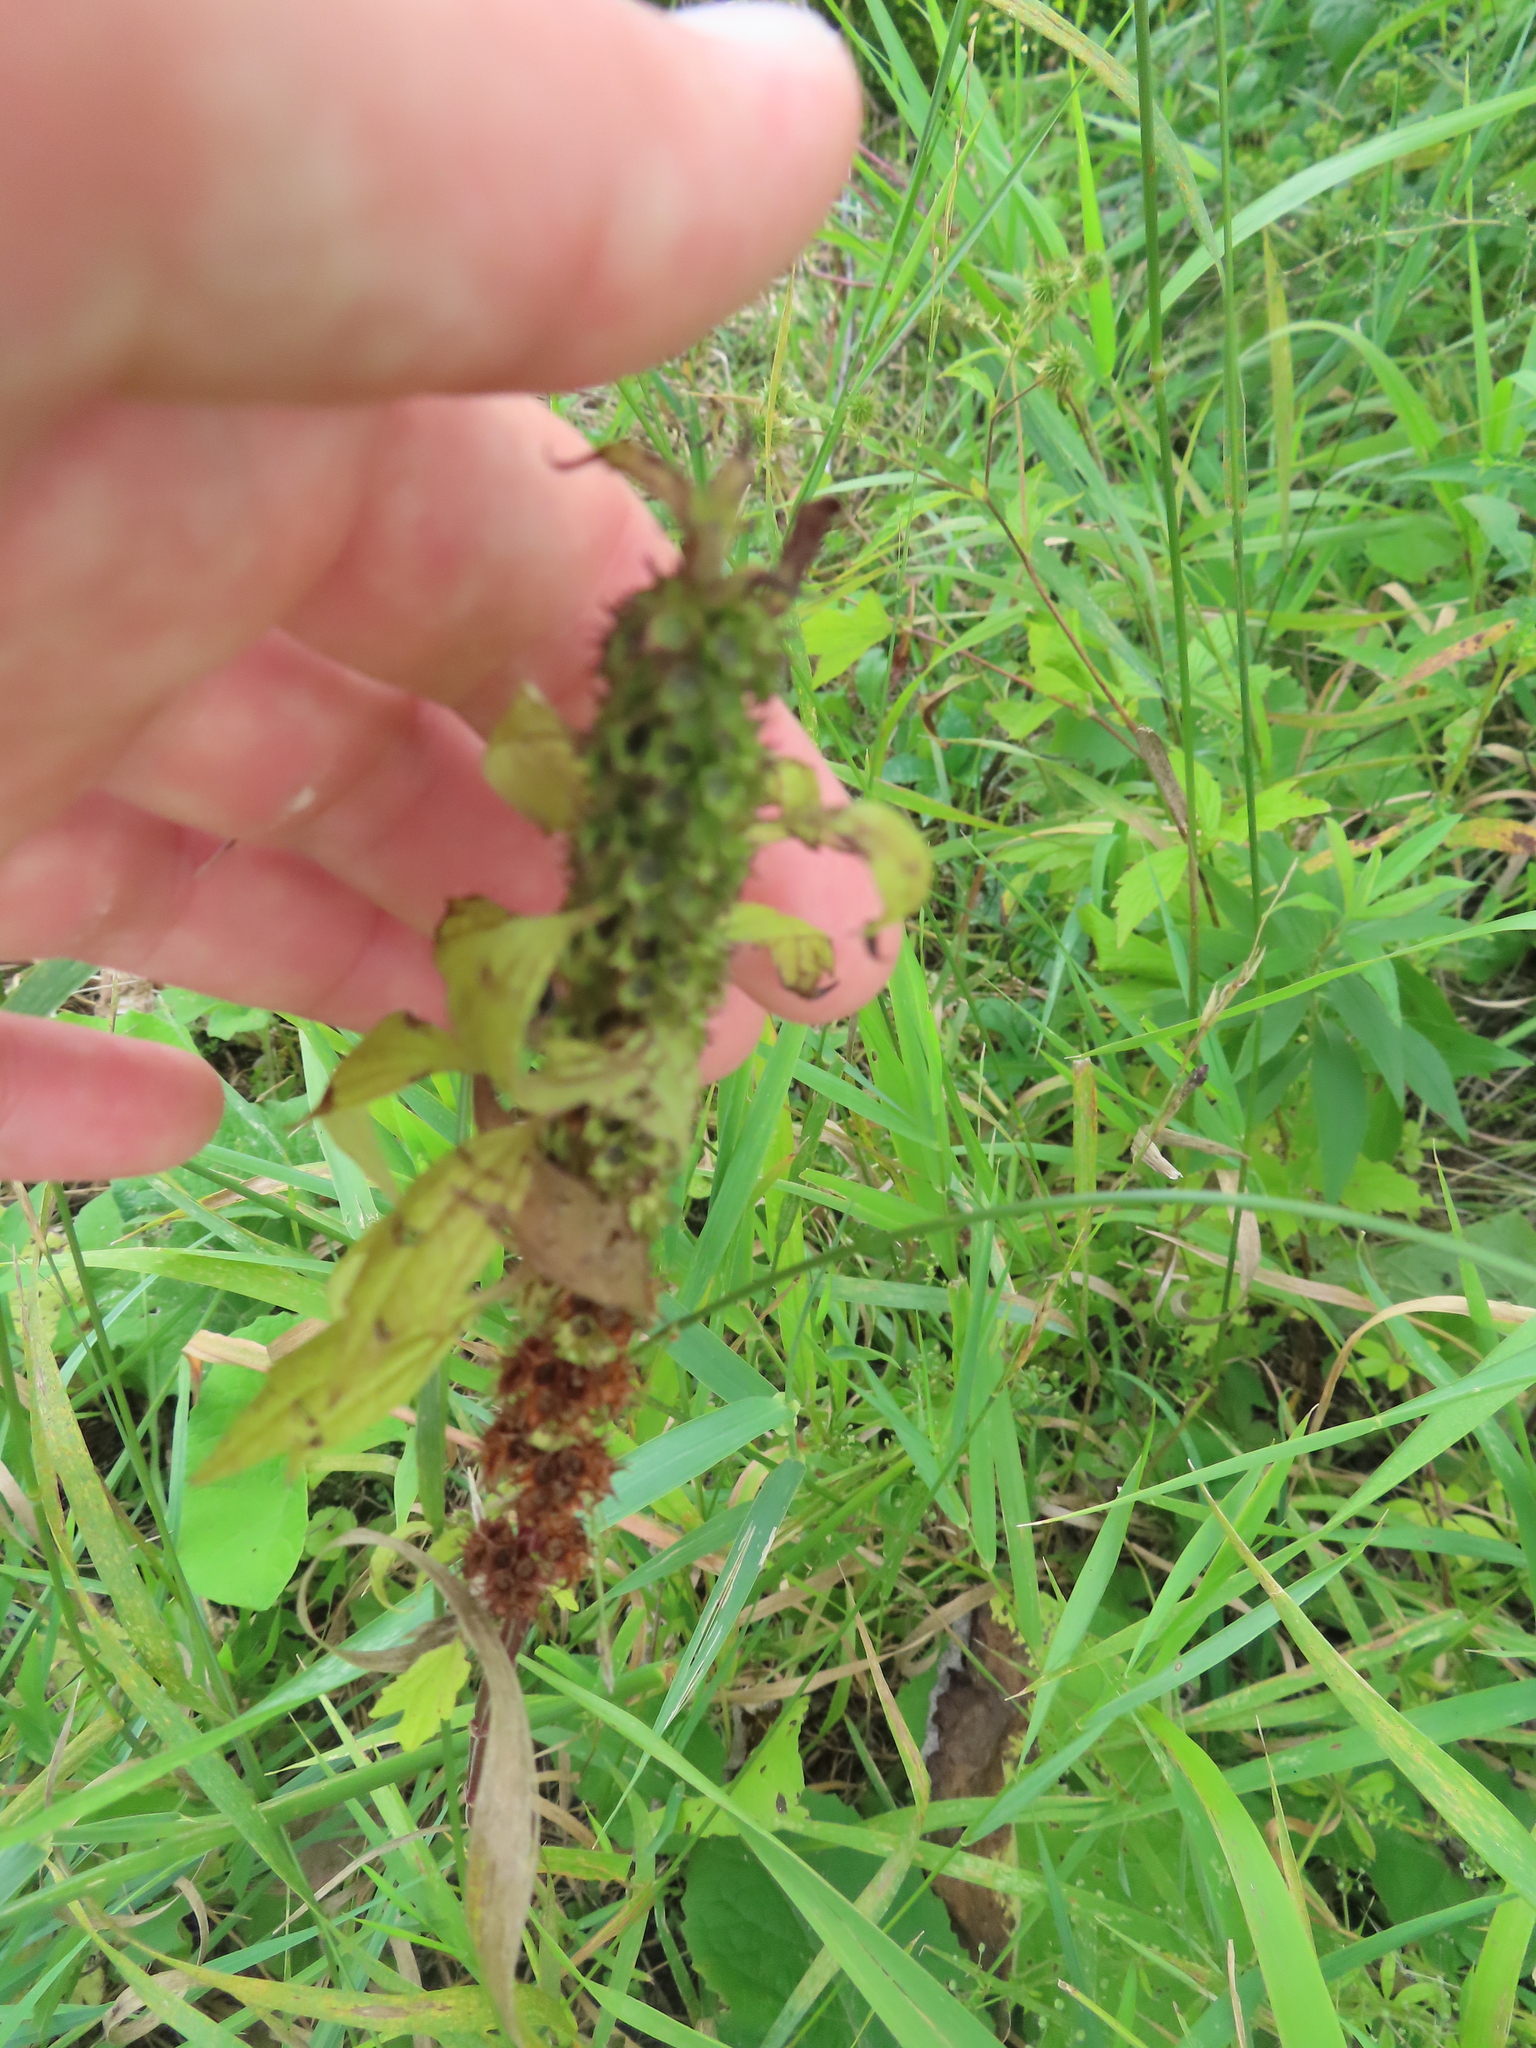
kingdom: Plantae
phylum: Tracheophyta
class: Magnoliopsida
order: Lamiales
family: Lamiaceae
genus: Leonurus
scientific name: Leonurus cardiaca
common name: Motherwort
